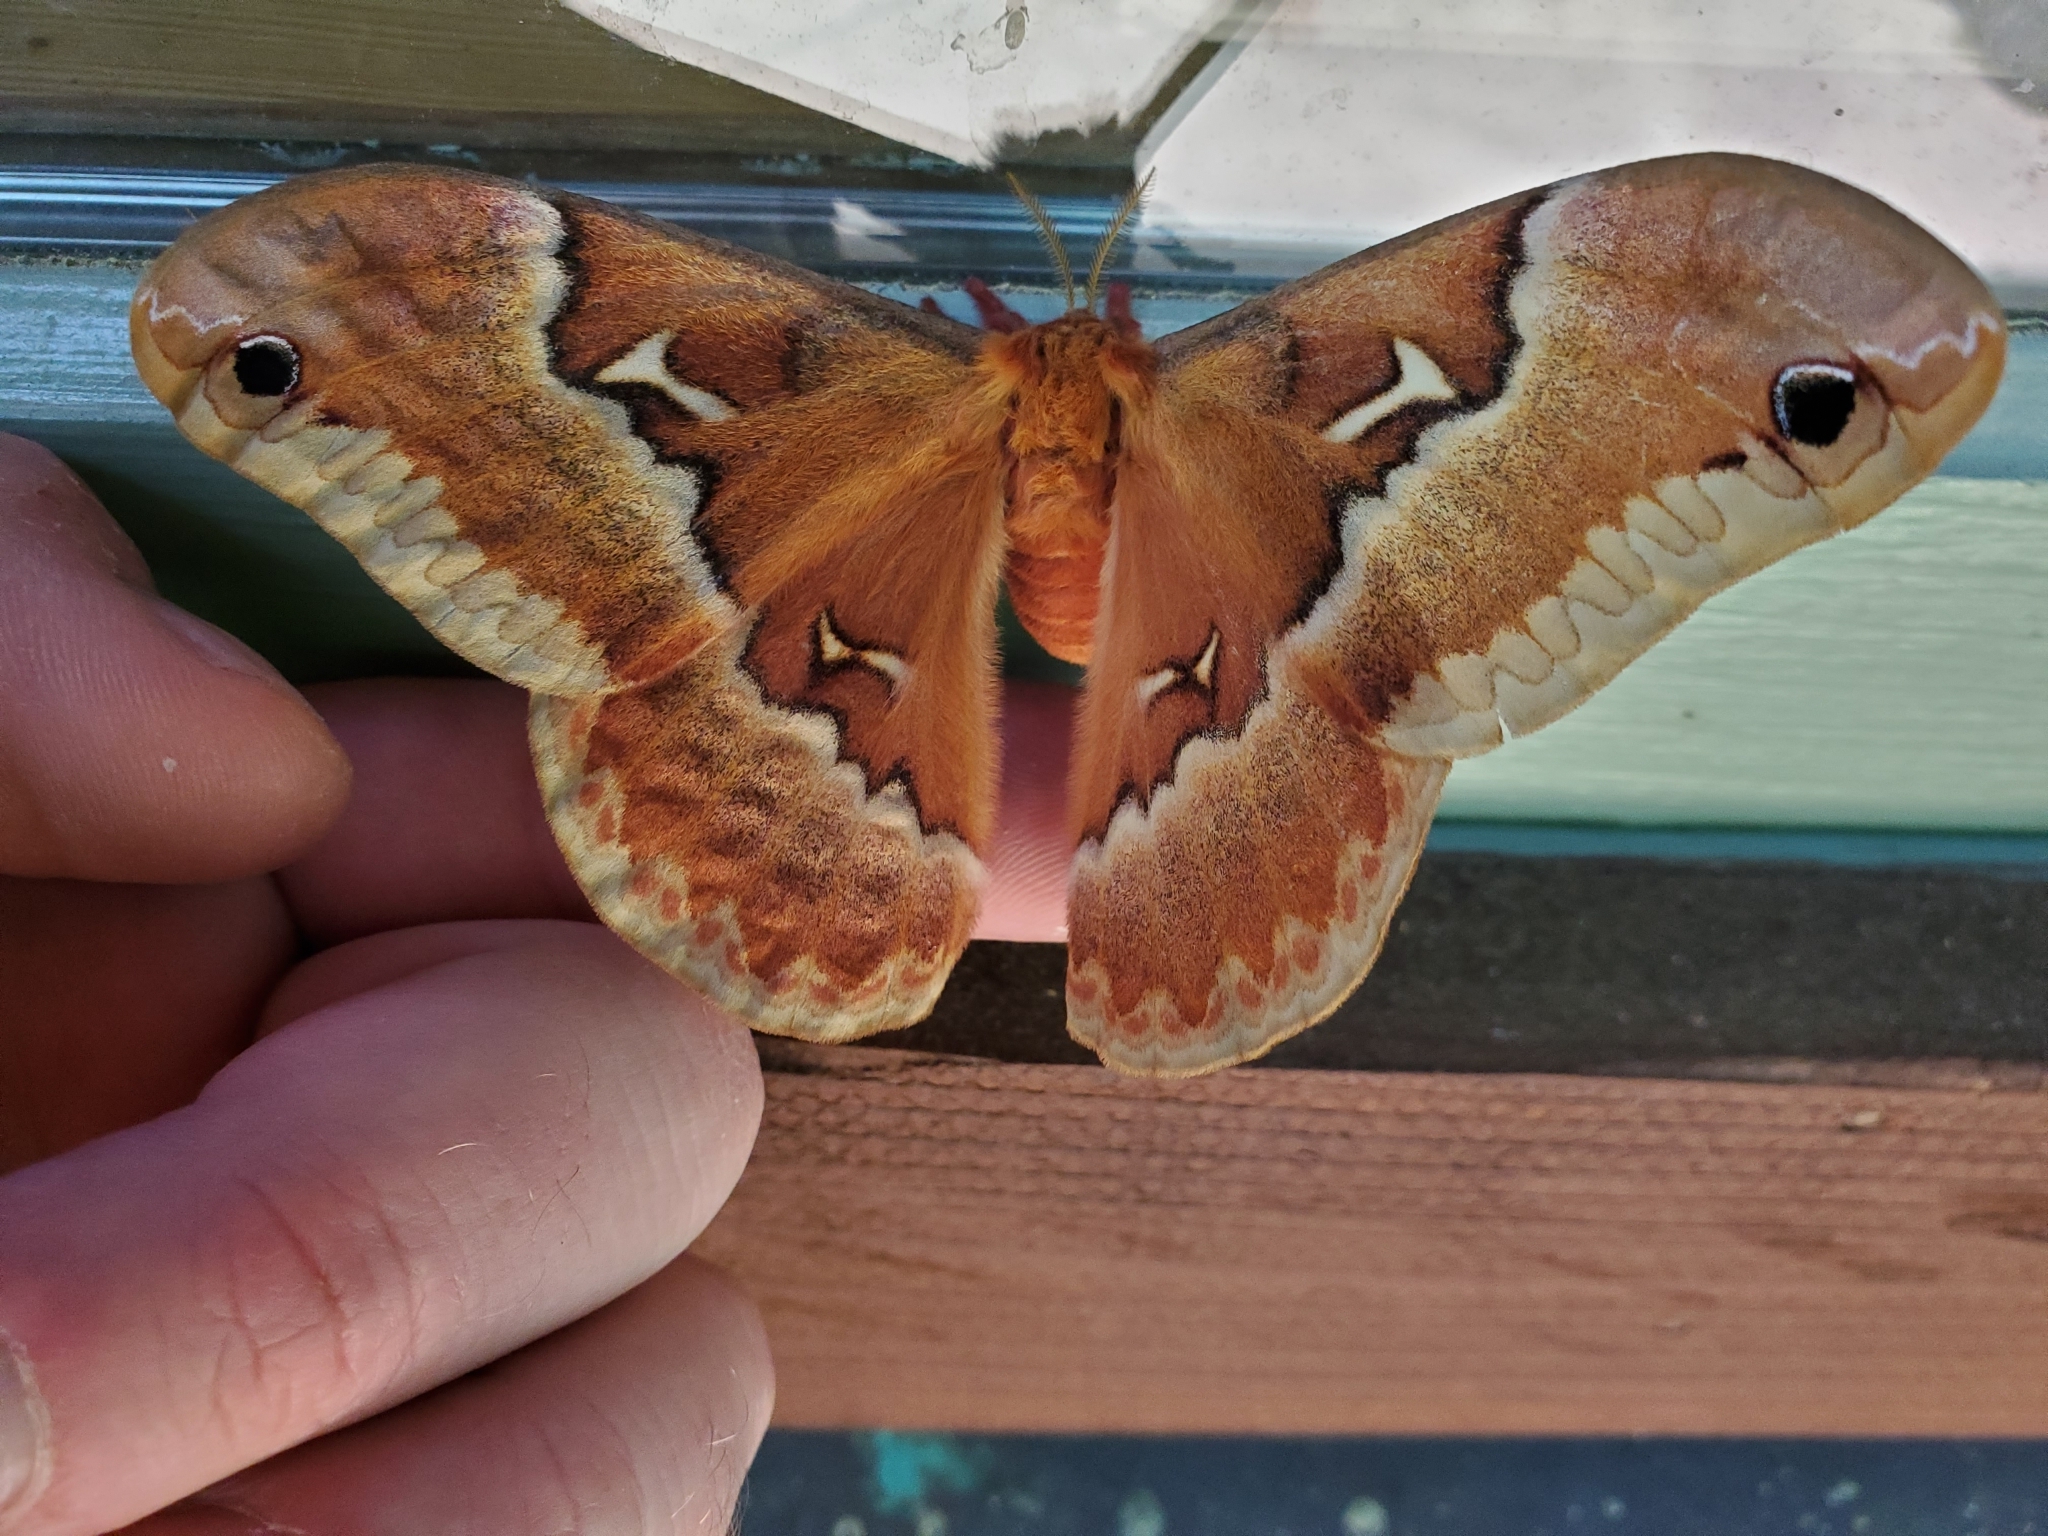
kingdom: Animalia
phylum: Arthropoda
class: Insecta
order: Lepidoptera
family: Saturniidae
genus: Callosamia
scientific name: Callosamia angulifera
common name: Tulip tree silkmoth
